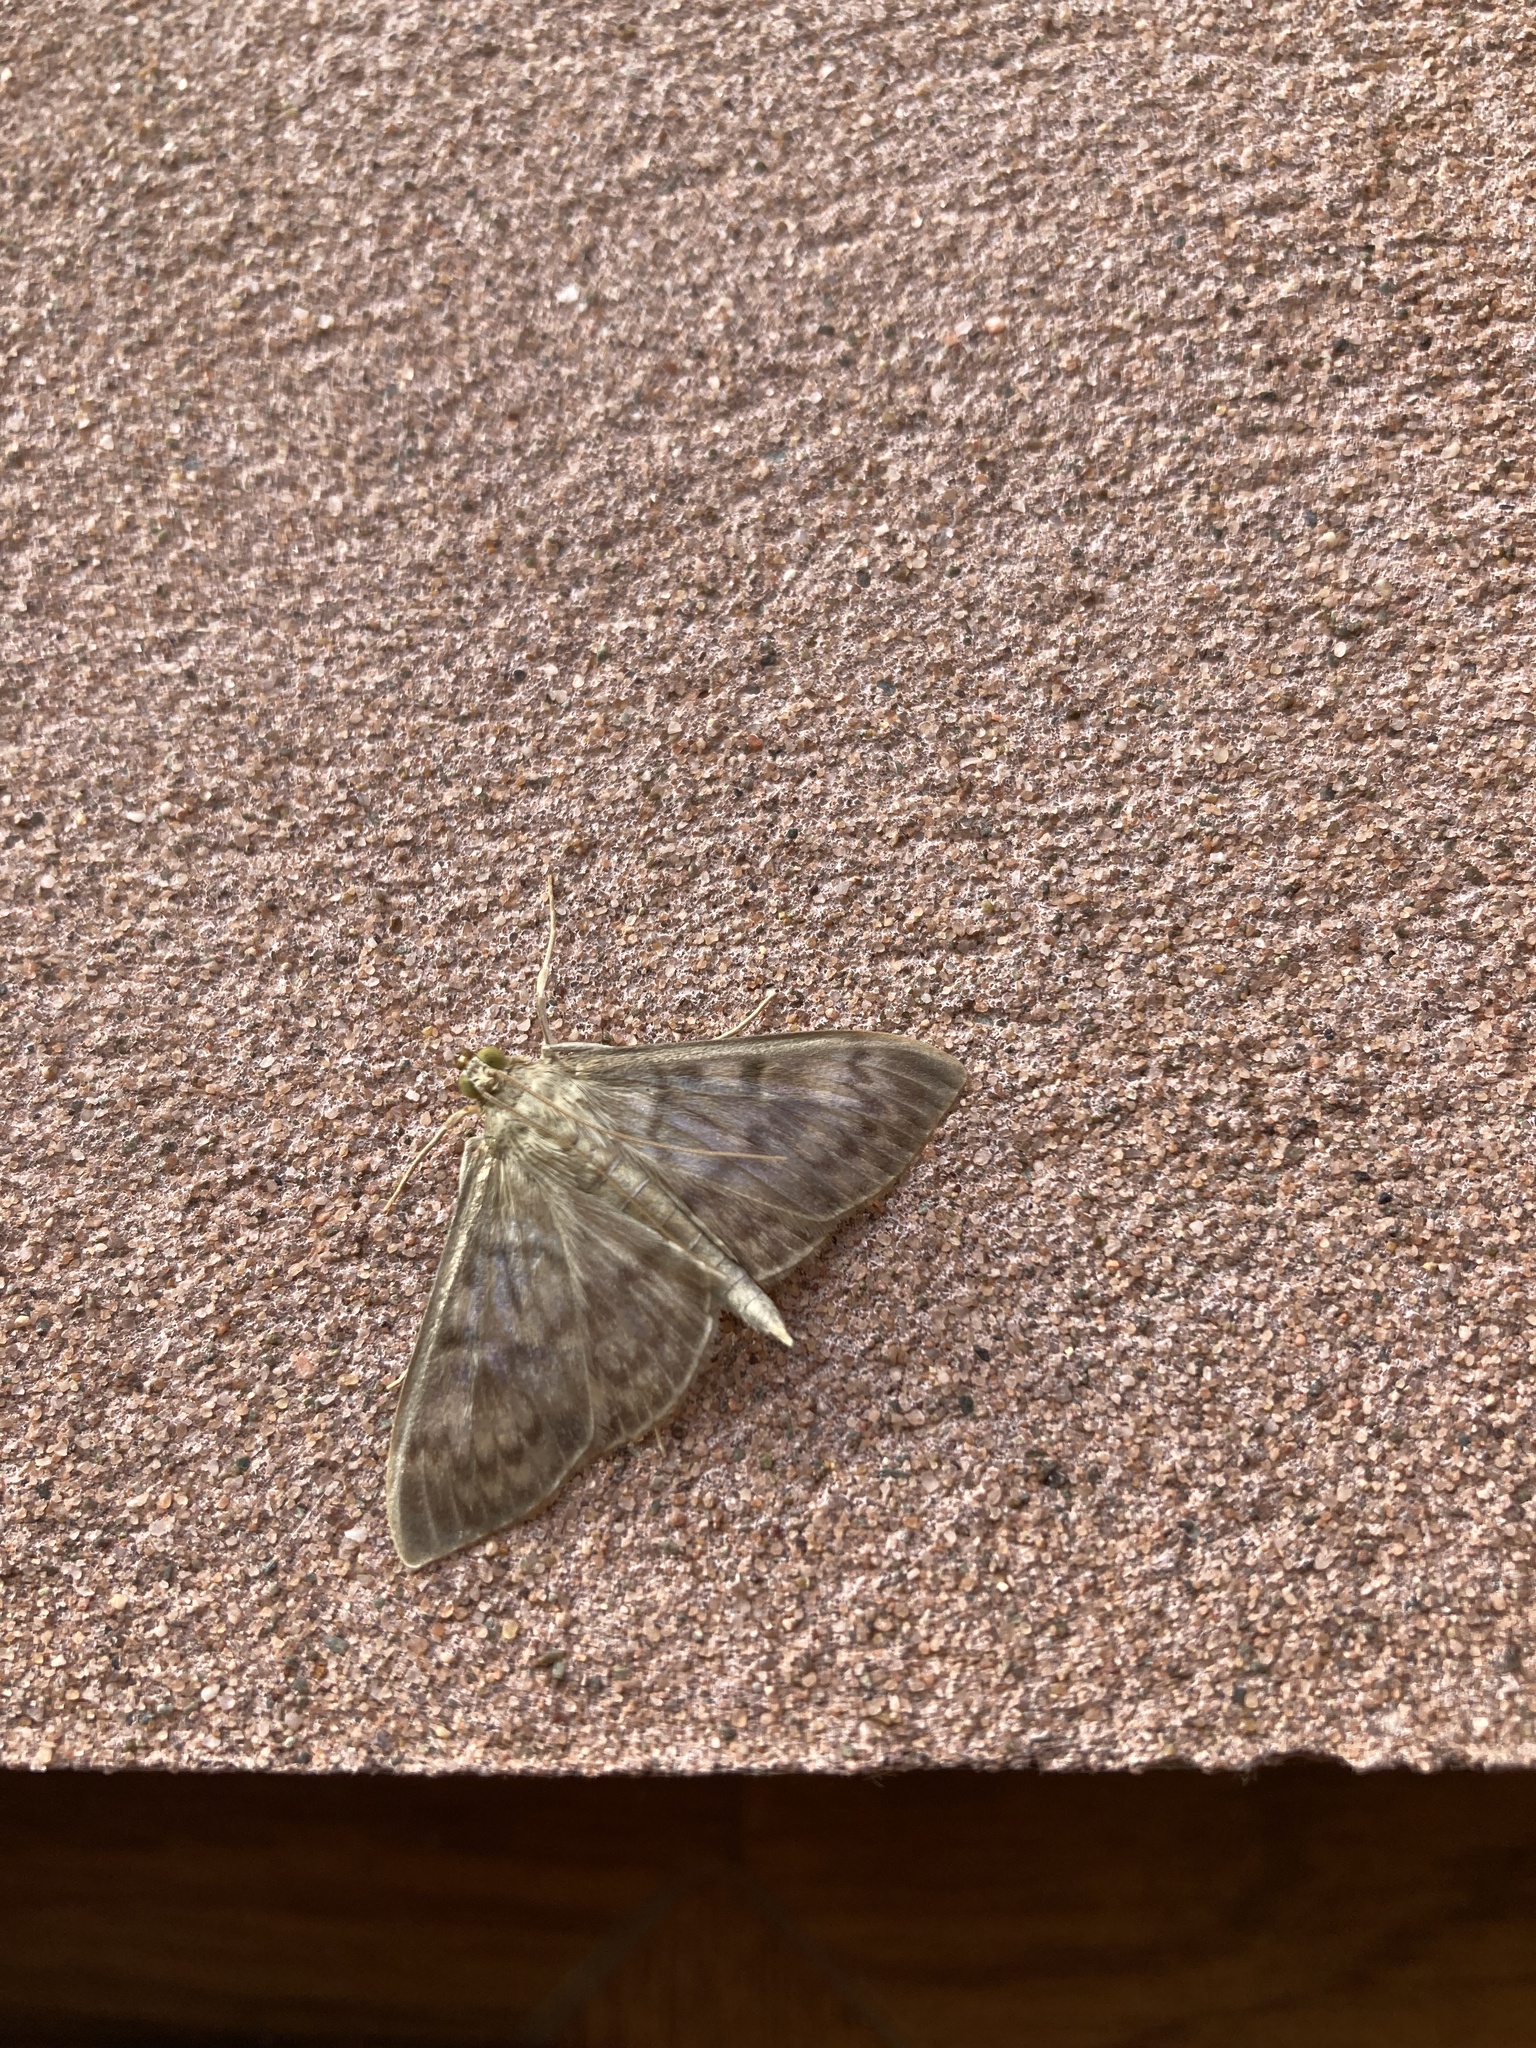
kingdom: Animalia
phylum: Arthropoda
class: Insecta
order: Lepidoptera
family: Crambidae
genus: Patania
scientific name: Patania ruralis
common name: Mother of pearl
